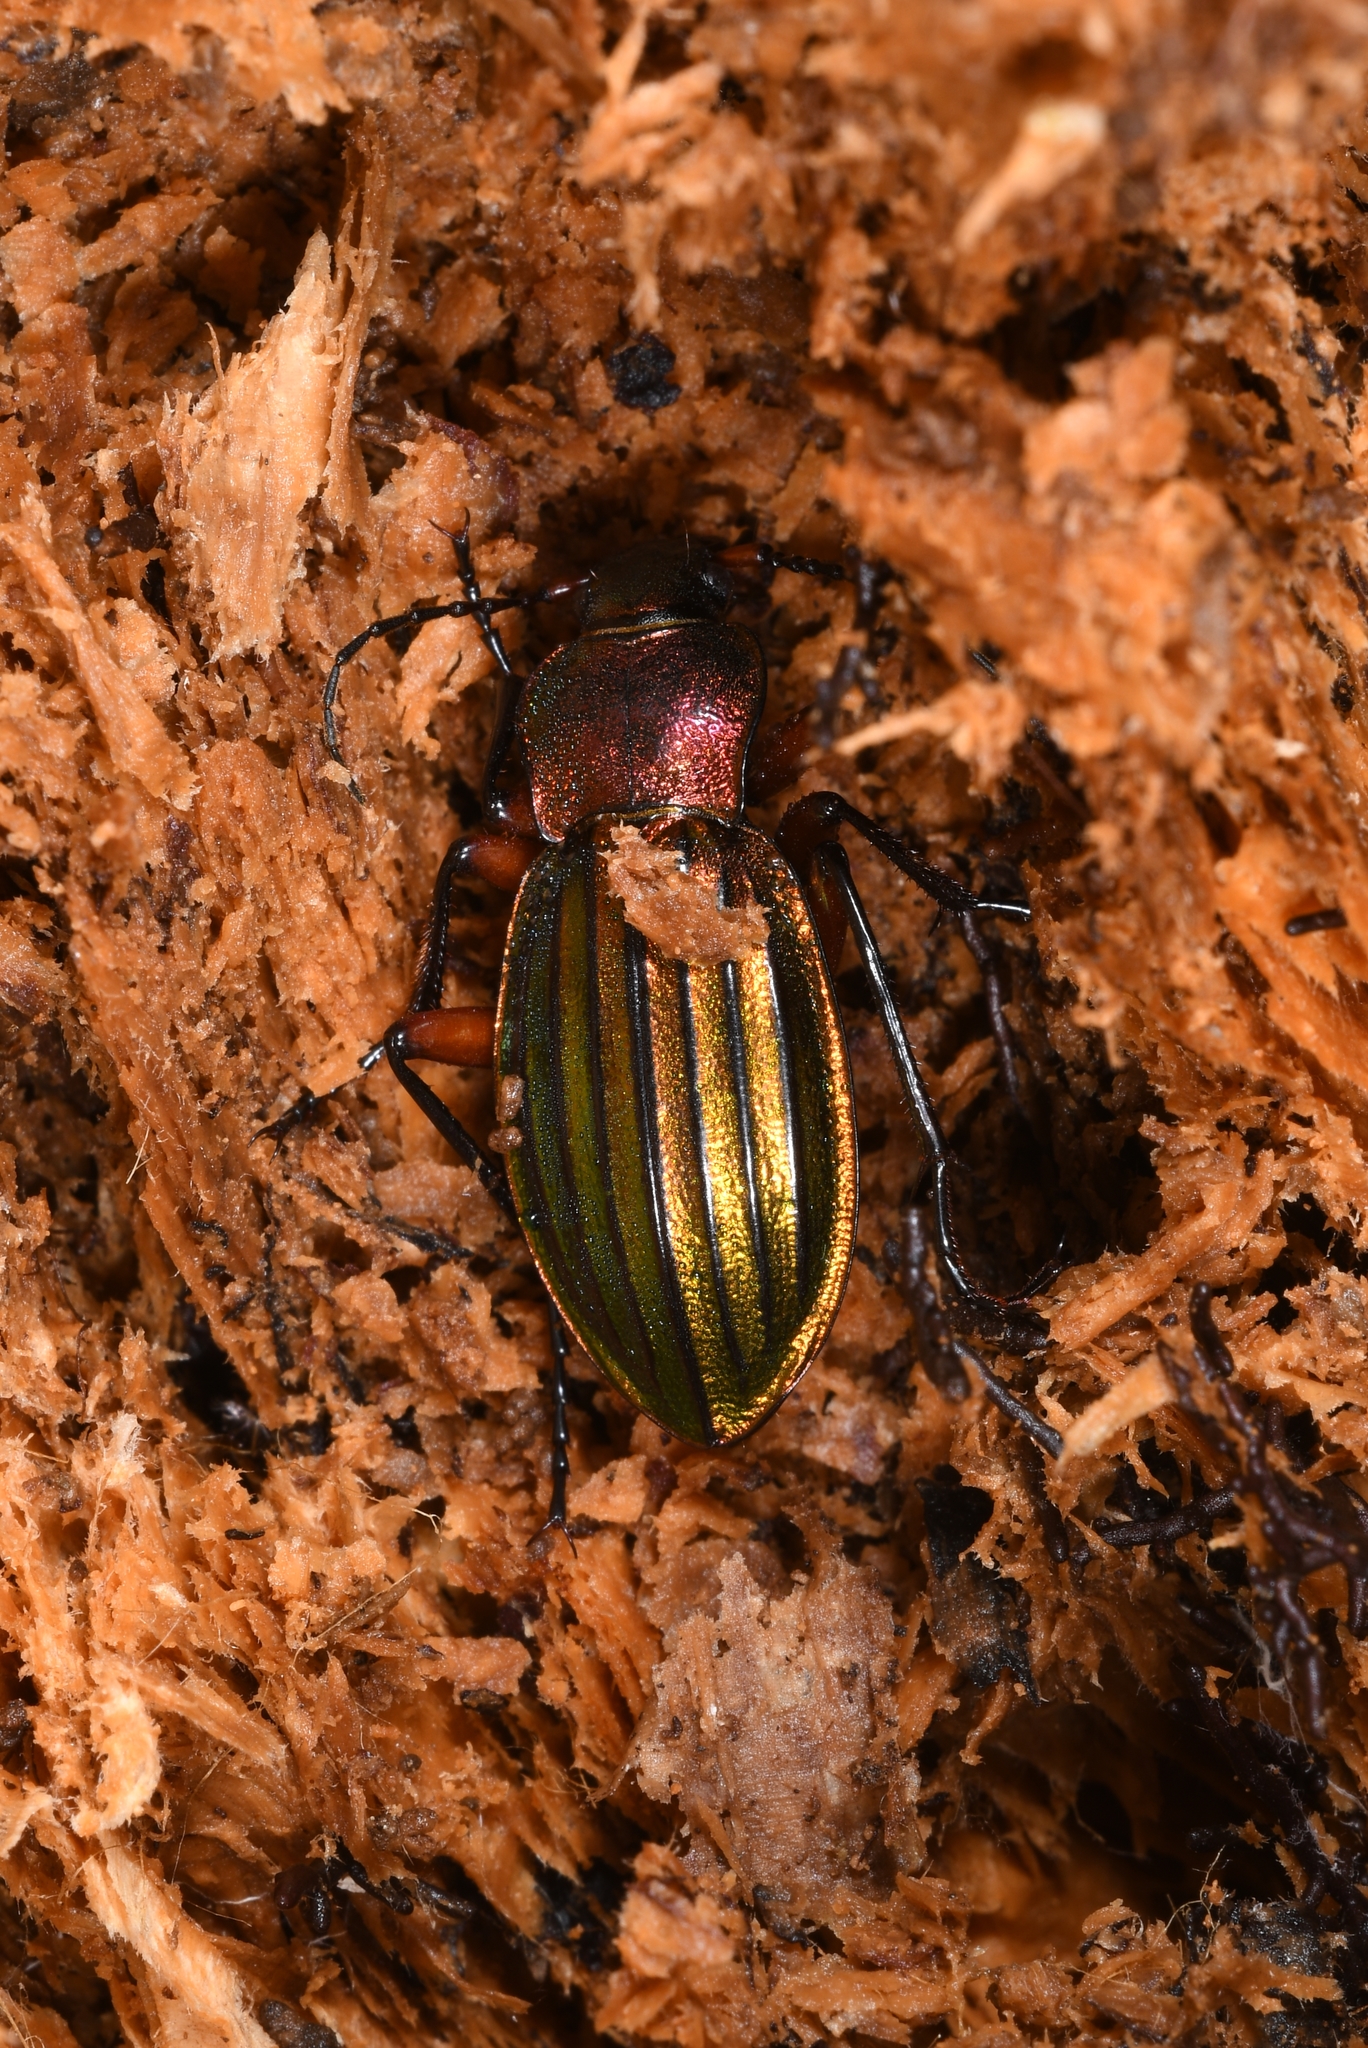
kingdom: Animalia
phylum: Arthropoda
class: Insecta
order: Coleoptera
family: Carabidae
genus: Carabus
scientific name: Carabus auronitens
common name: Carabus auronitens
